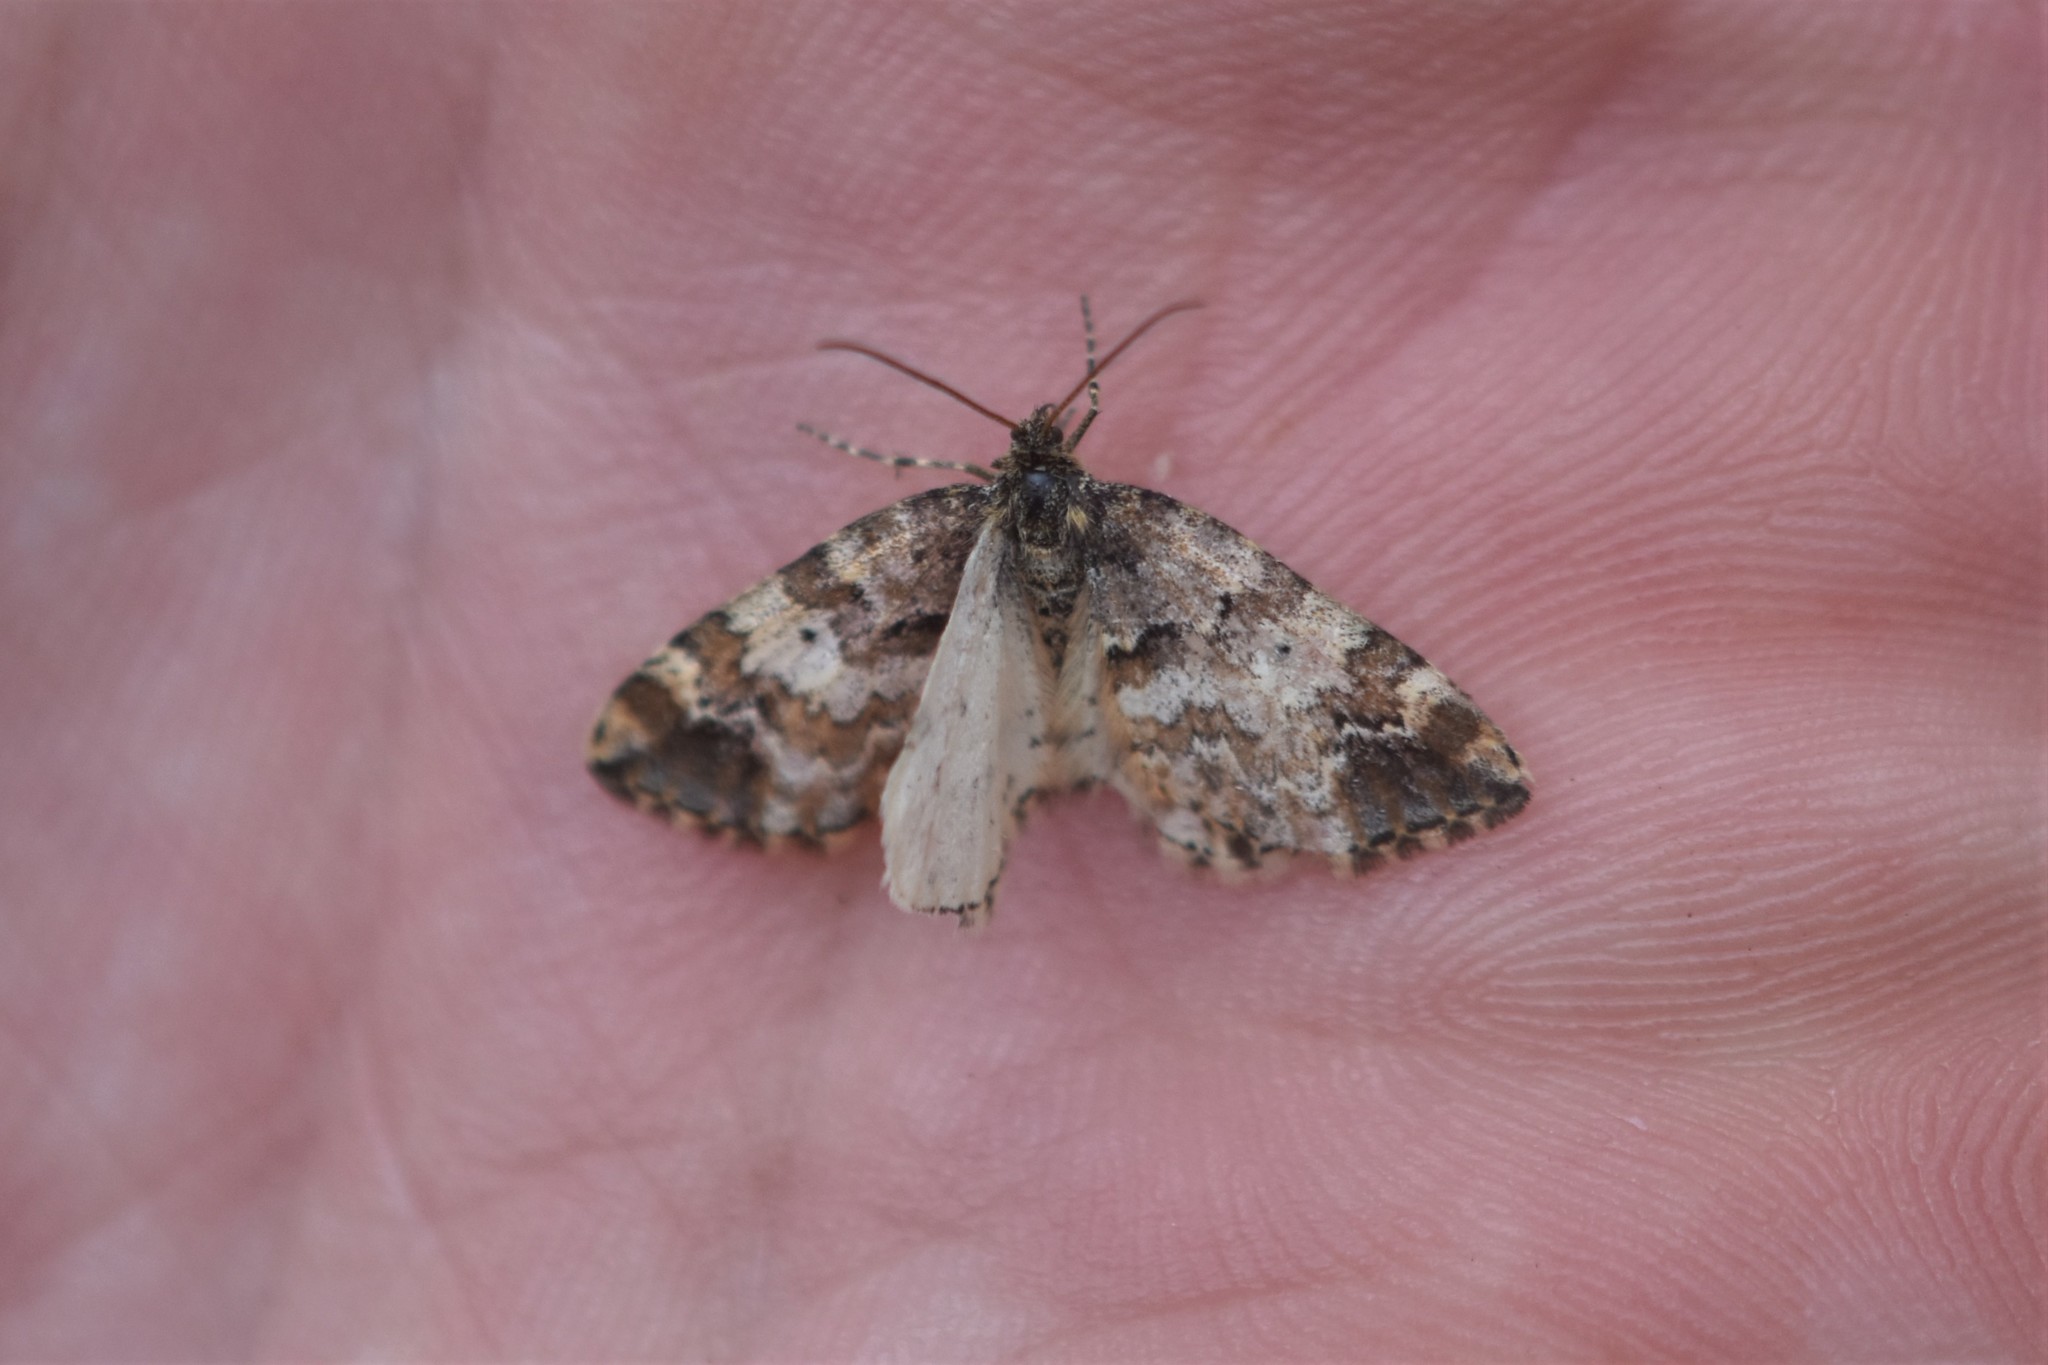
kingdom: Animalia
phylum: Arthropoda
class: Insecta
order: Lepidoptera
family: Geometridae
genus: Enchoria
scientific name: Enchoria lacteata
